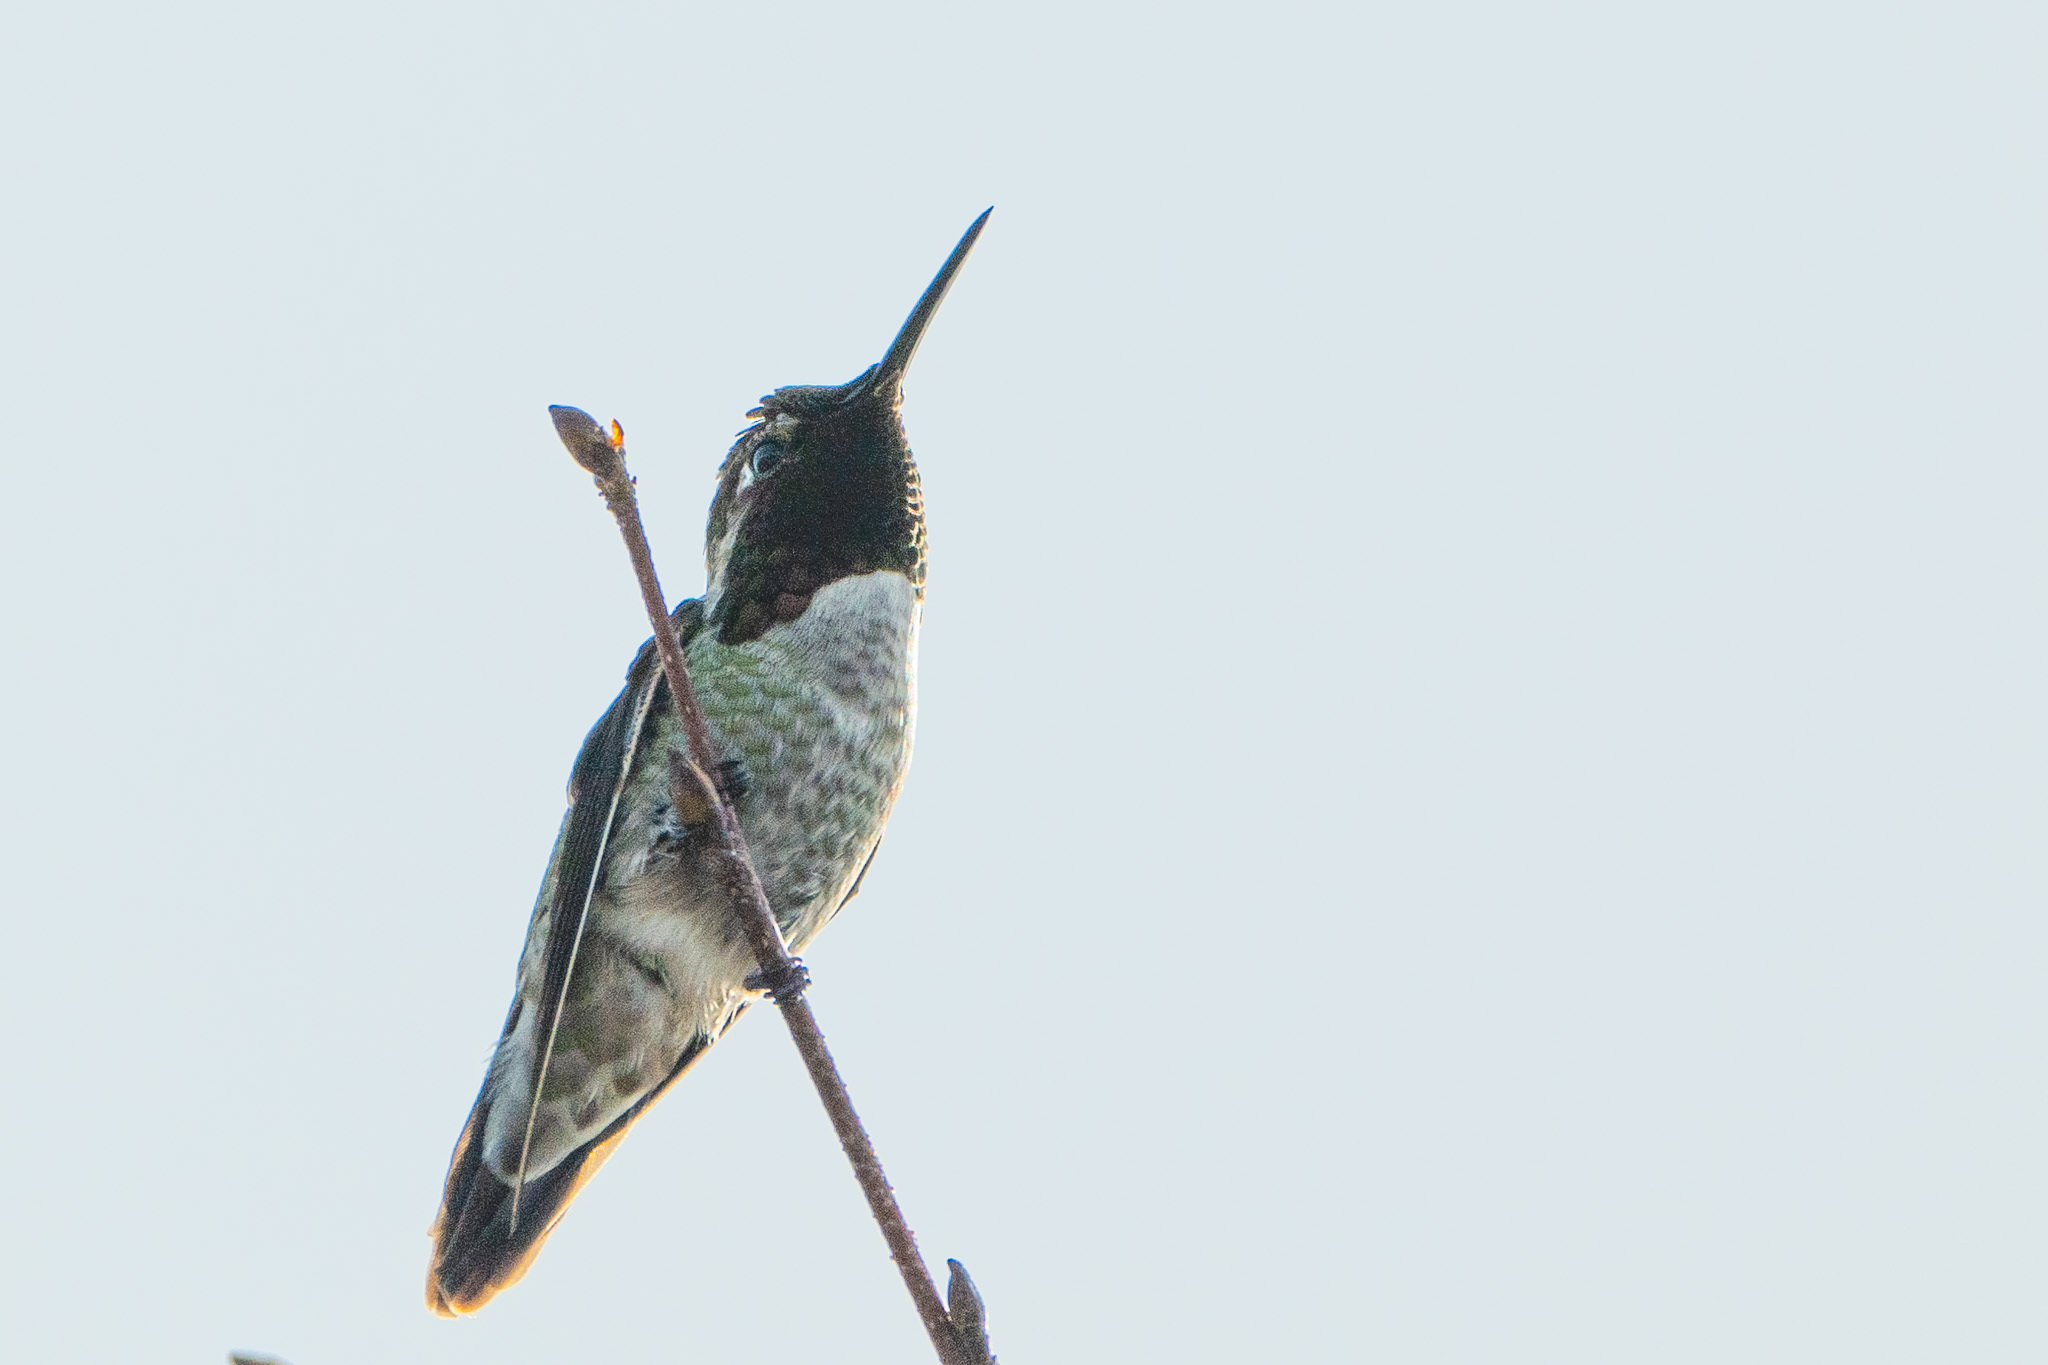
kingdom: Animalia
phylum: Chordata
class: Aves
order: Apodiformes
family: Trochilidae
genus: Calypte
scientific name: Calypte anna
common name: Anna's hummingbird
